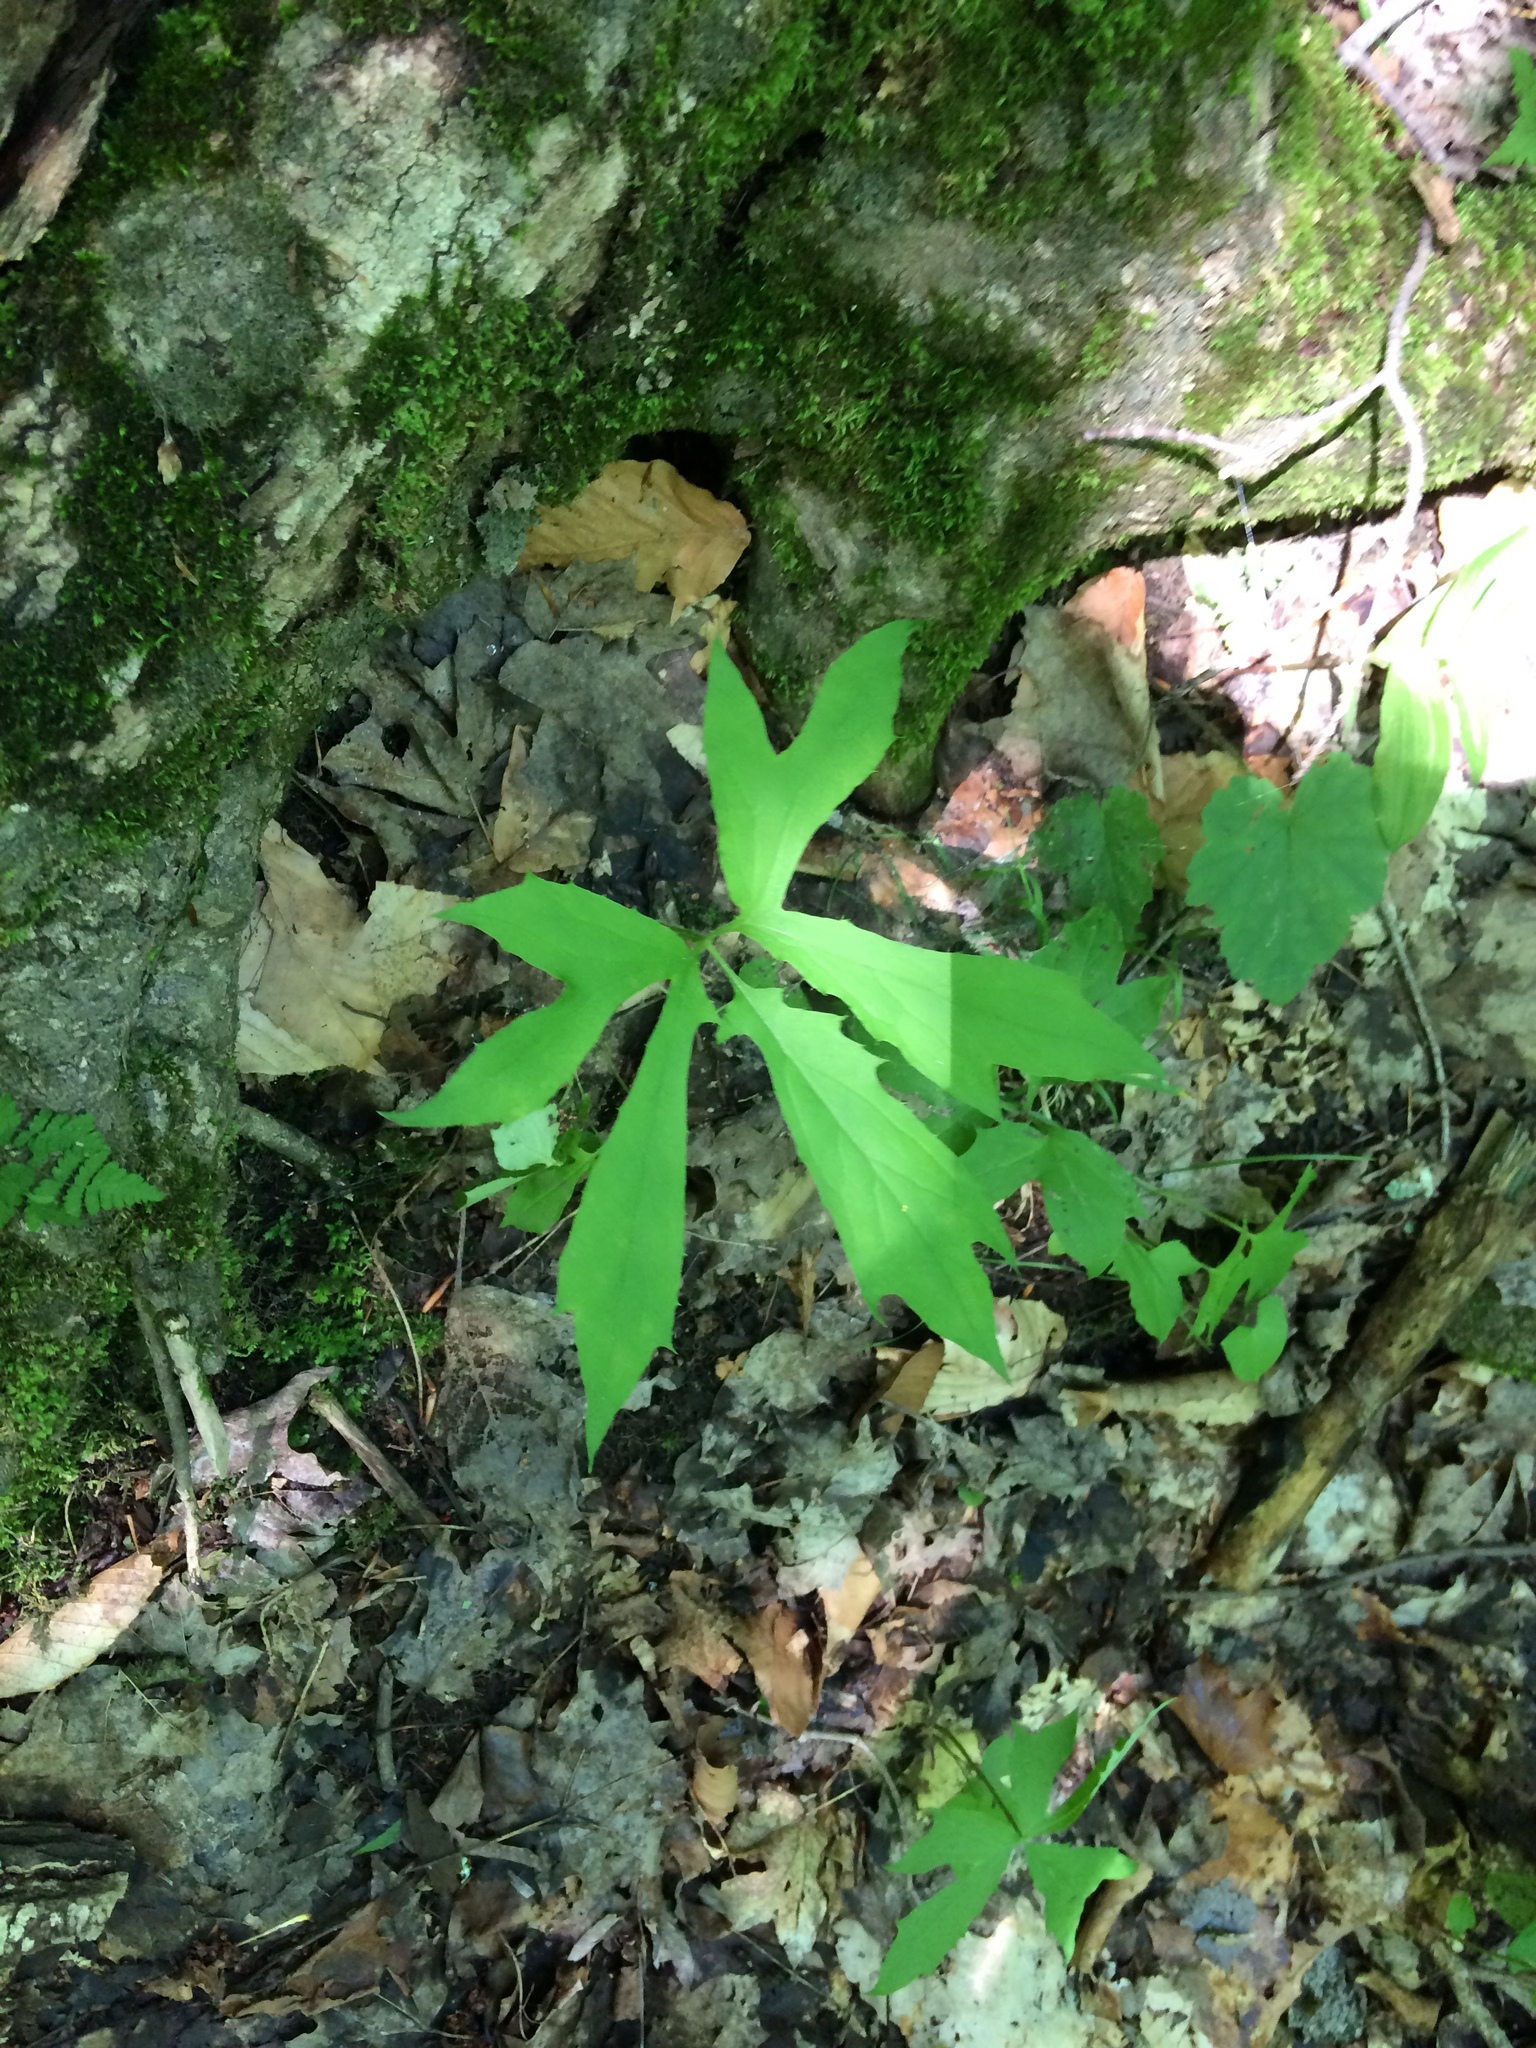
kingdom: Plantae
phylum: Tracheophyta
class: Magnoliopsida
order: Asterales
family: Asteraceae
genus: Nabalus
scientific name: Nabalus
